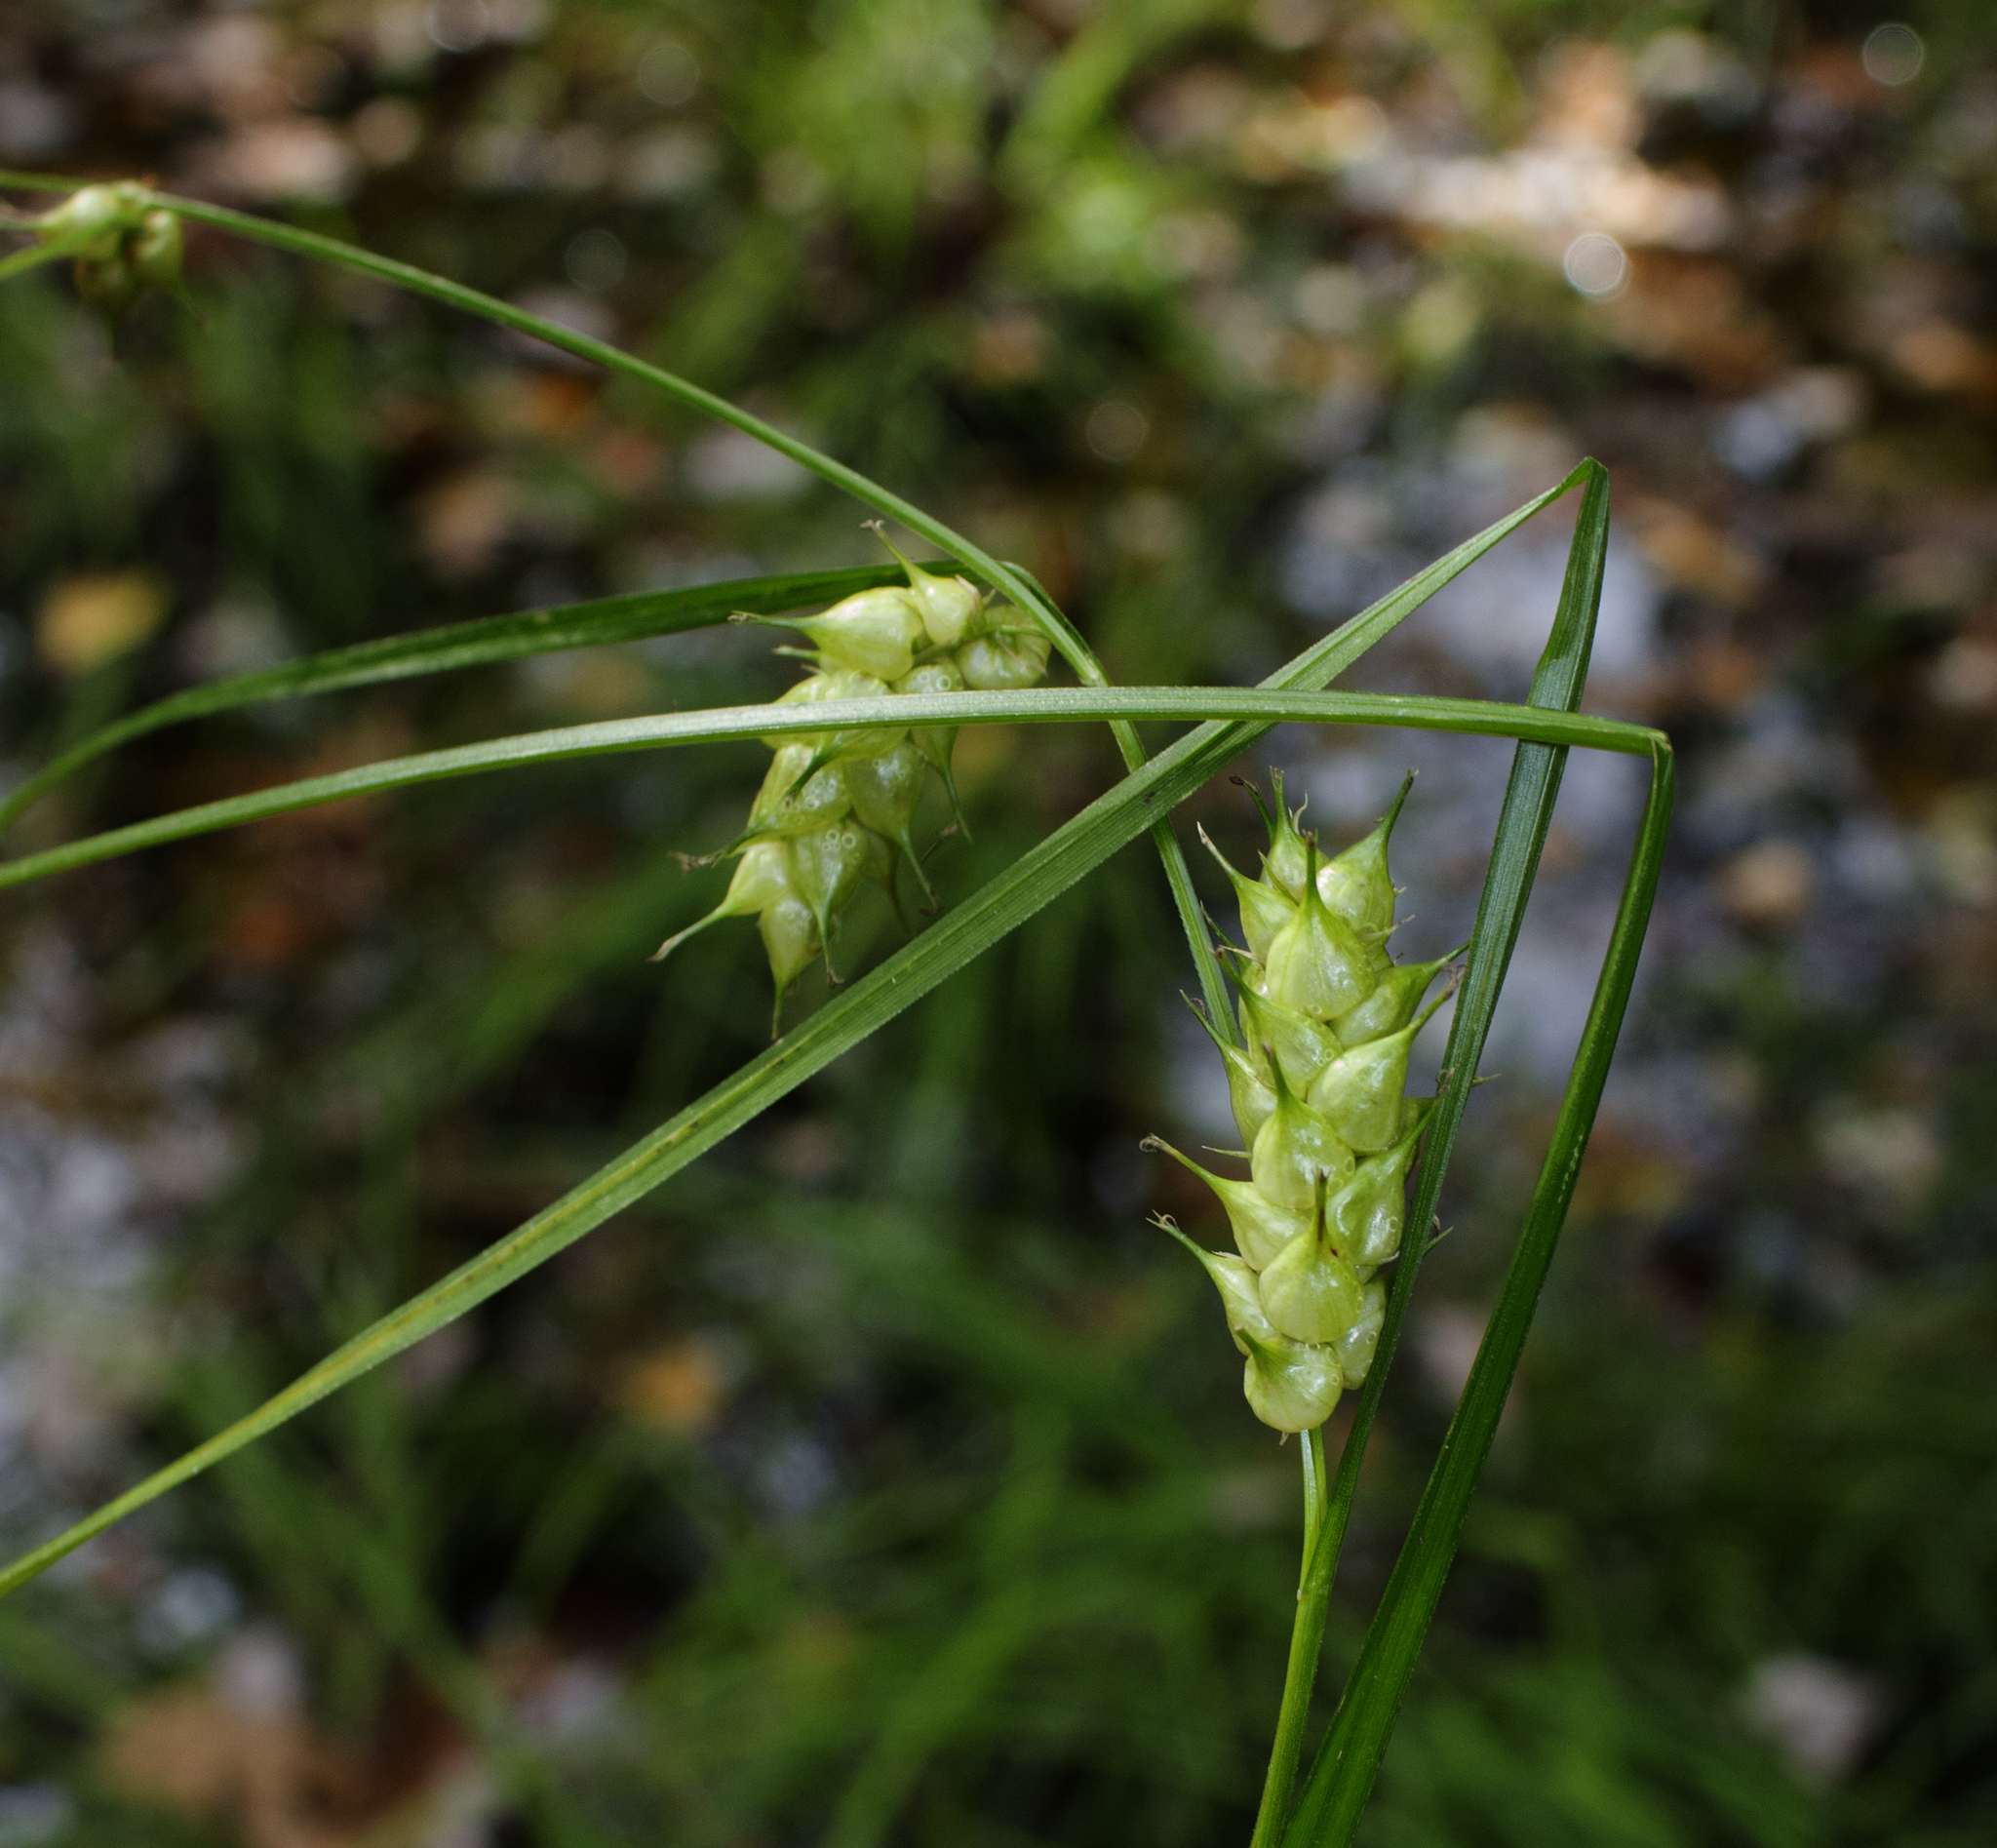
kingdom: Plantae
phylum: Tracheophyta
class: Liliopsida
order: Poales
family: Cyperaceae
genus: Carex
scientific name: Carex tuckermanii
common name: Tuckerman's sedge
